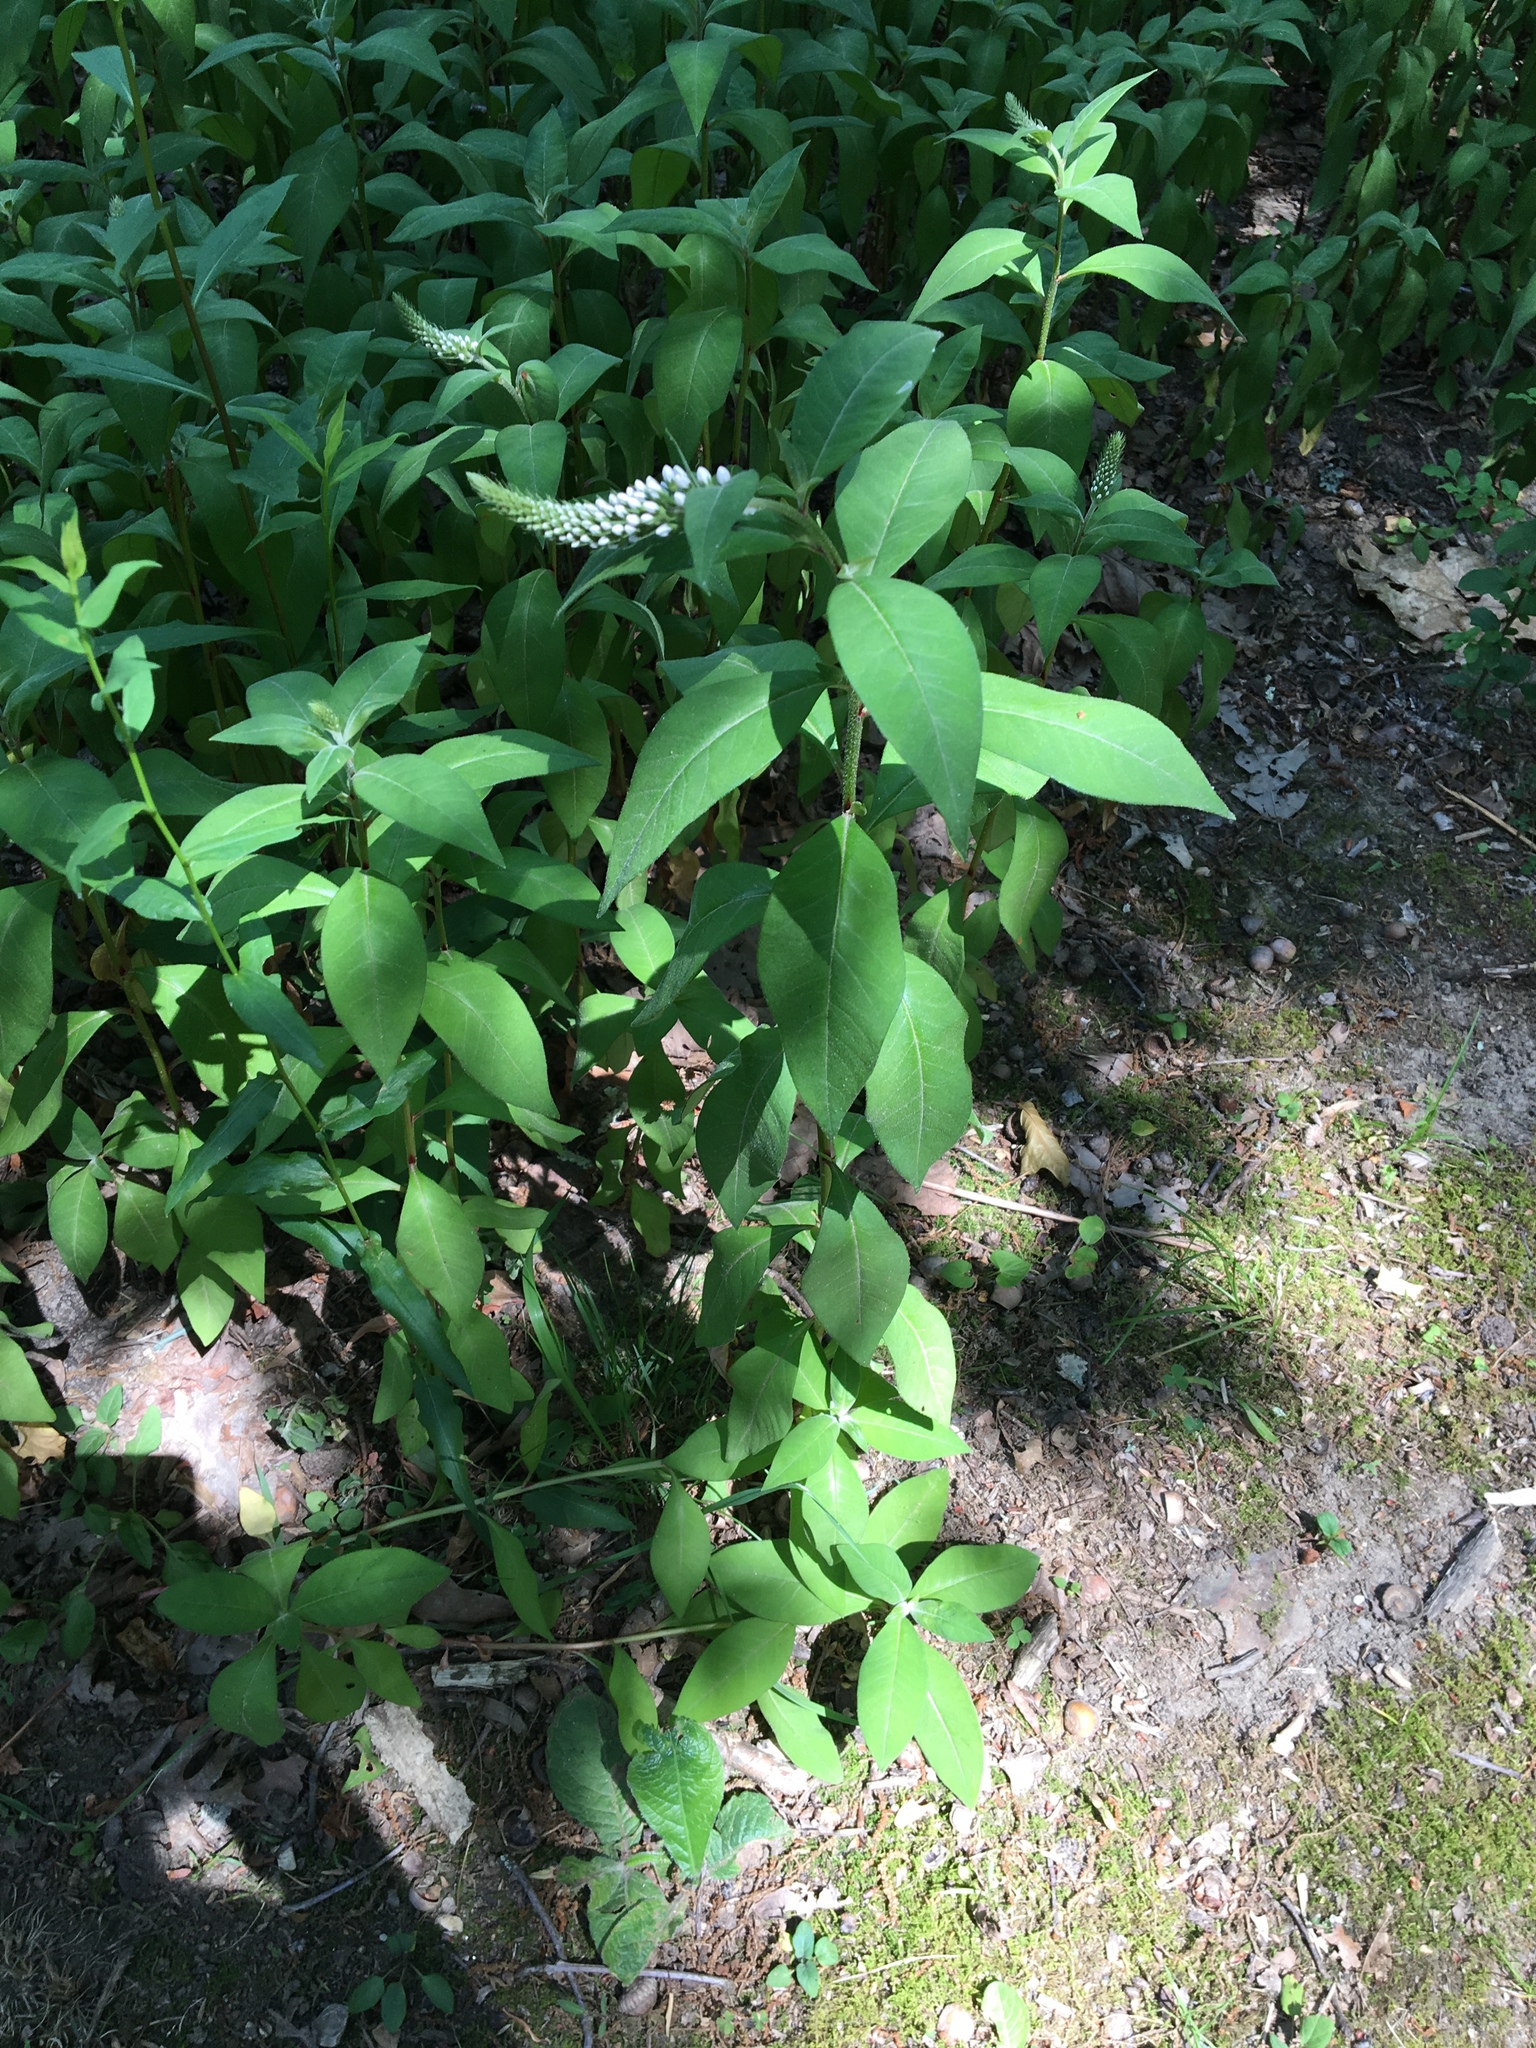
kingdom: Plantae
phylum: Tracheophyta
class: Magnoliopsida
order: Ericales
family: Primulaceae
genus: Lysimachia
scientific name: Lysimachia clethroides
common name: Gooseneck loosestrife
